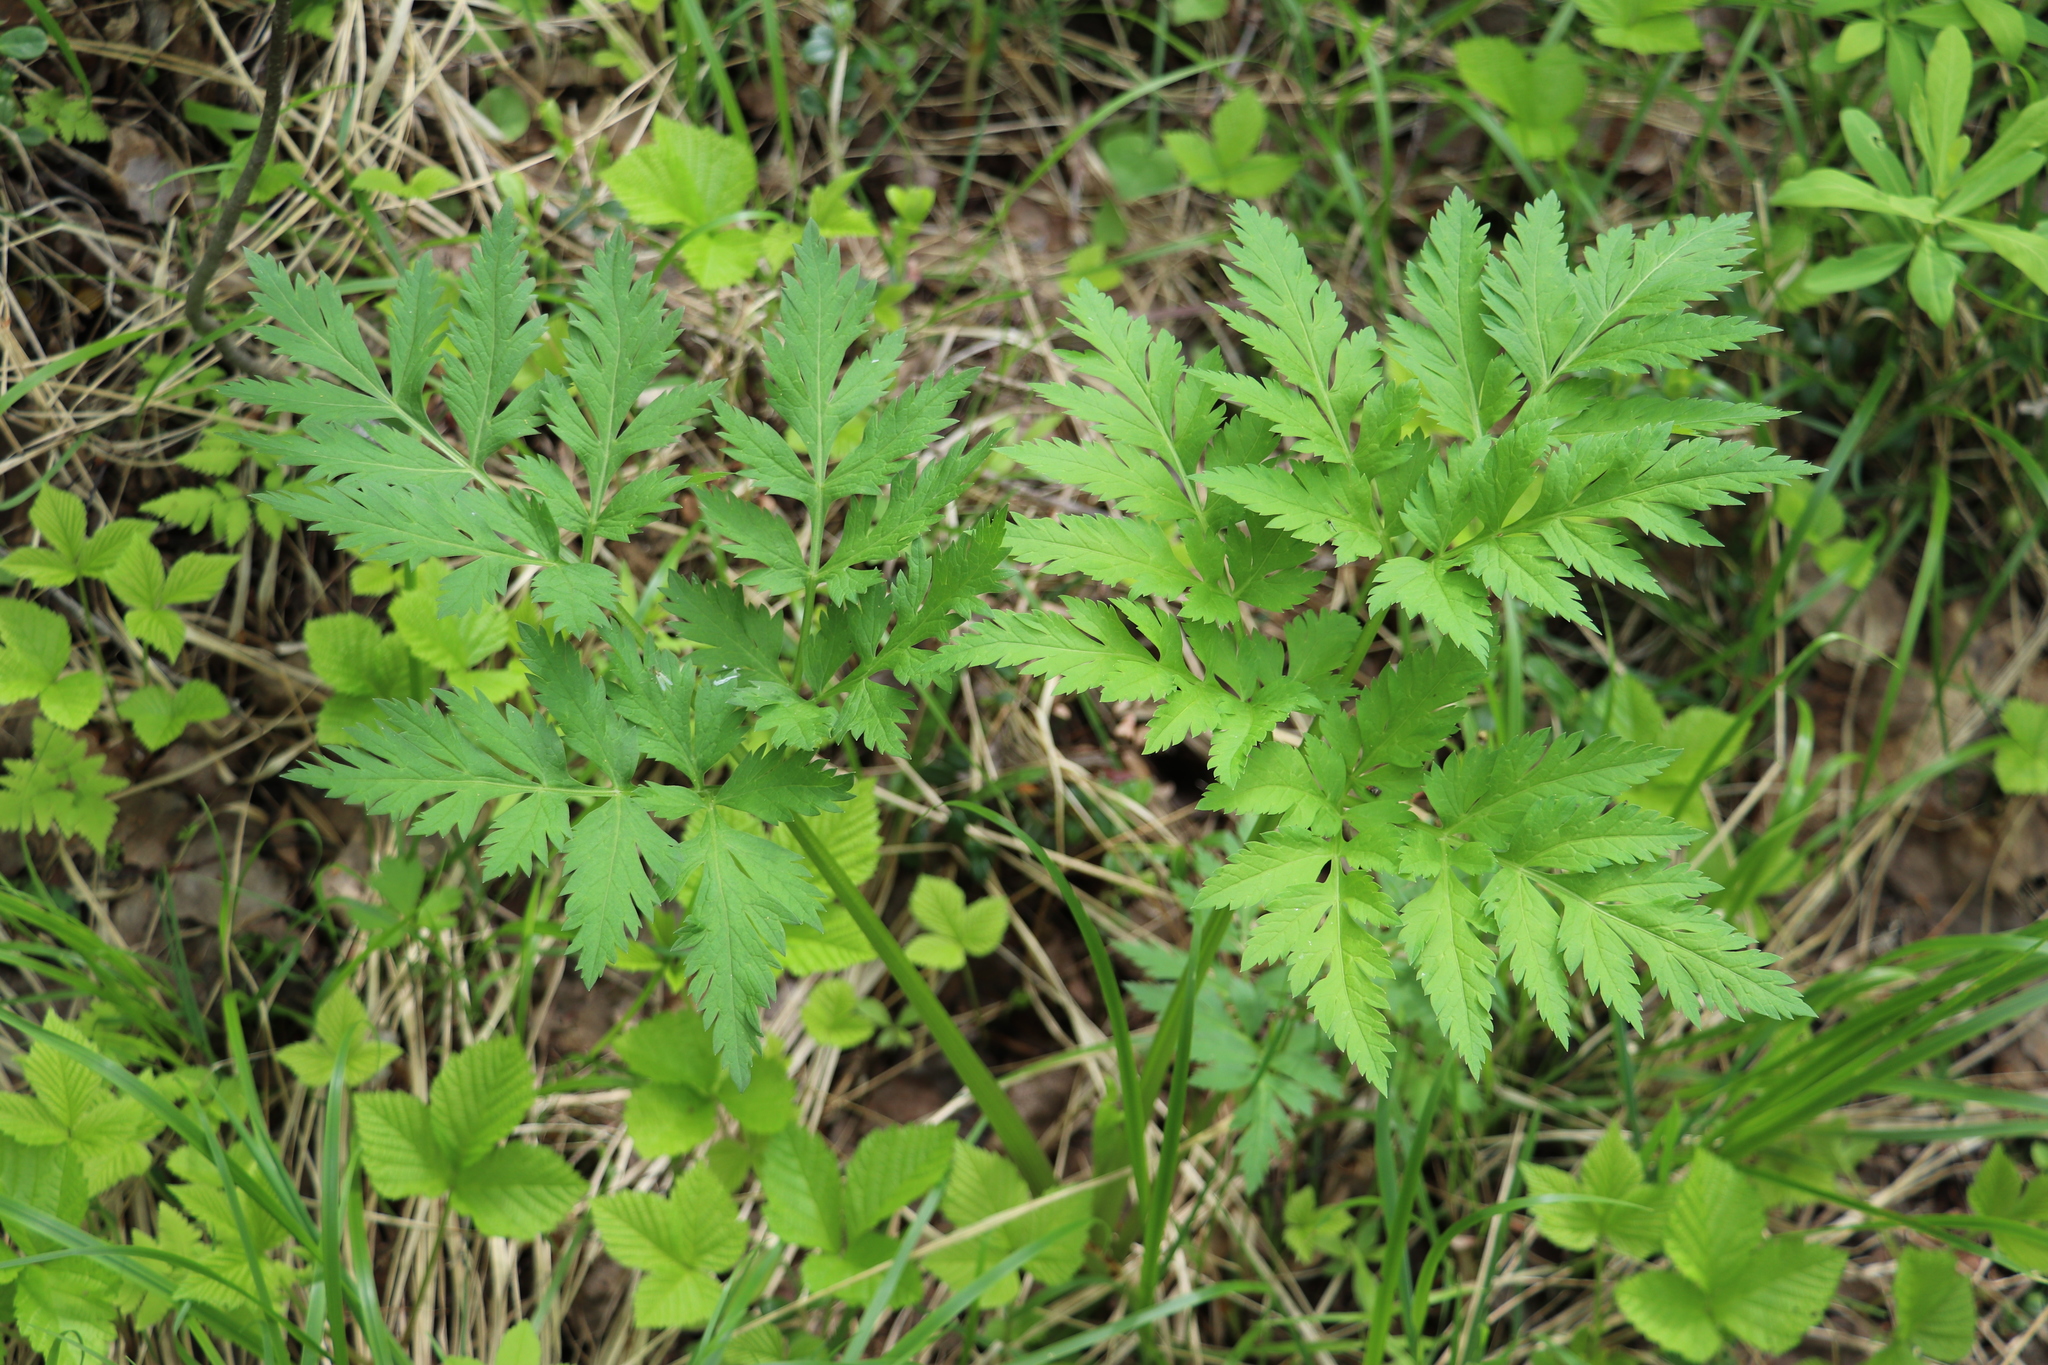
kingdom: Plantae
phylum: Tracheophyta
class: Magnoliopsida
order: Apiales
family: Apiaceae
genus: Pleurospermum
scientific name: Pleurospermum uralense
